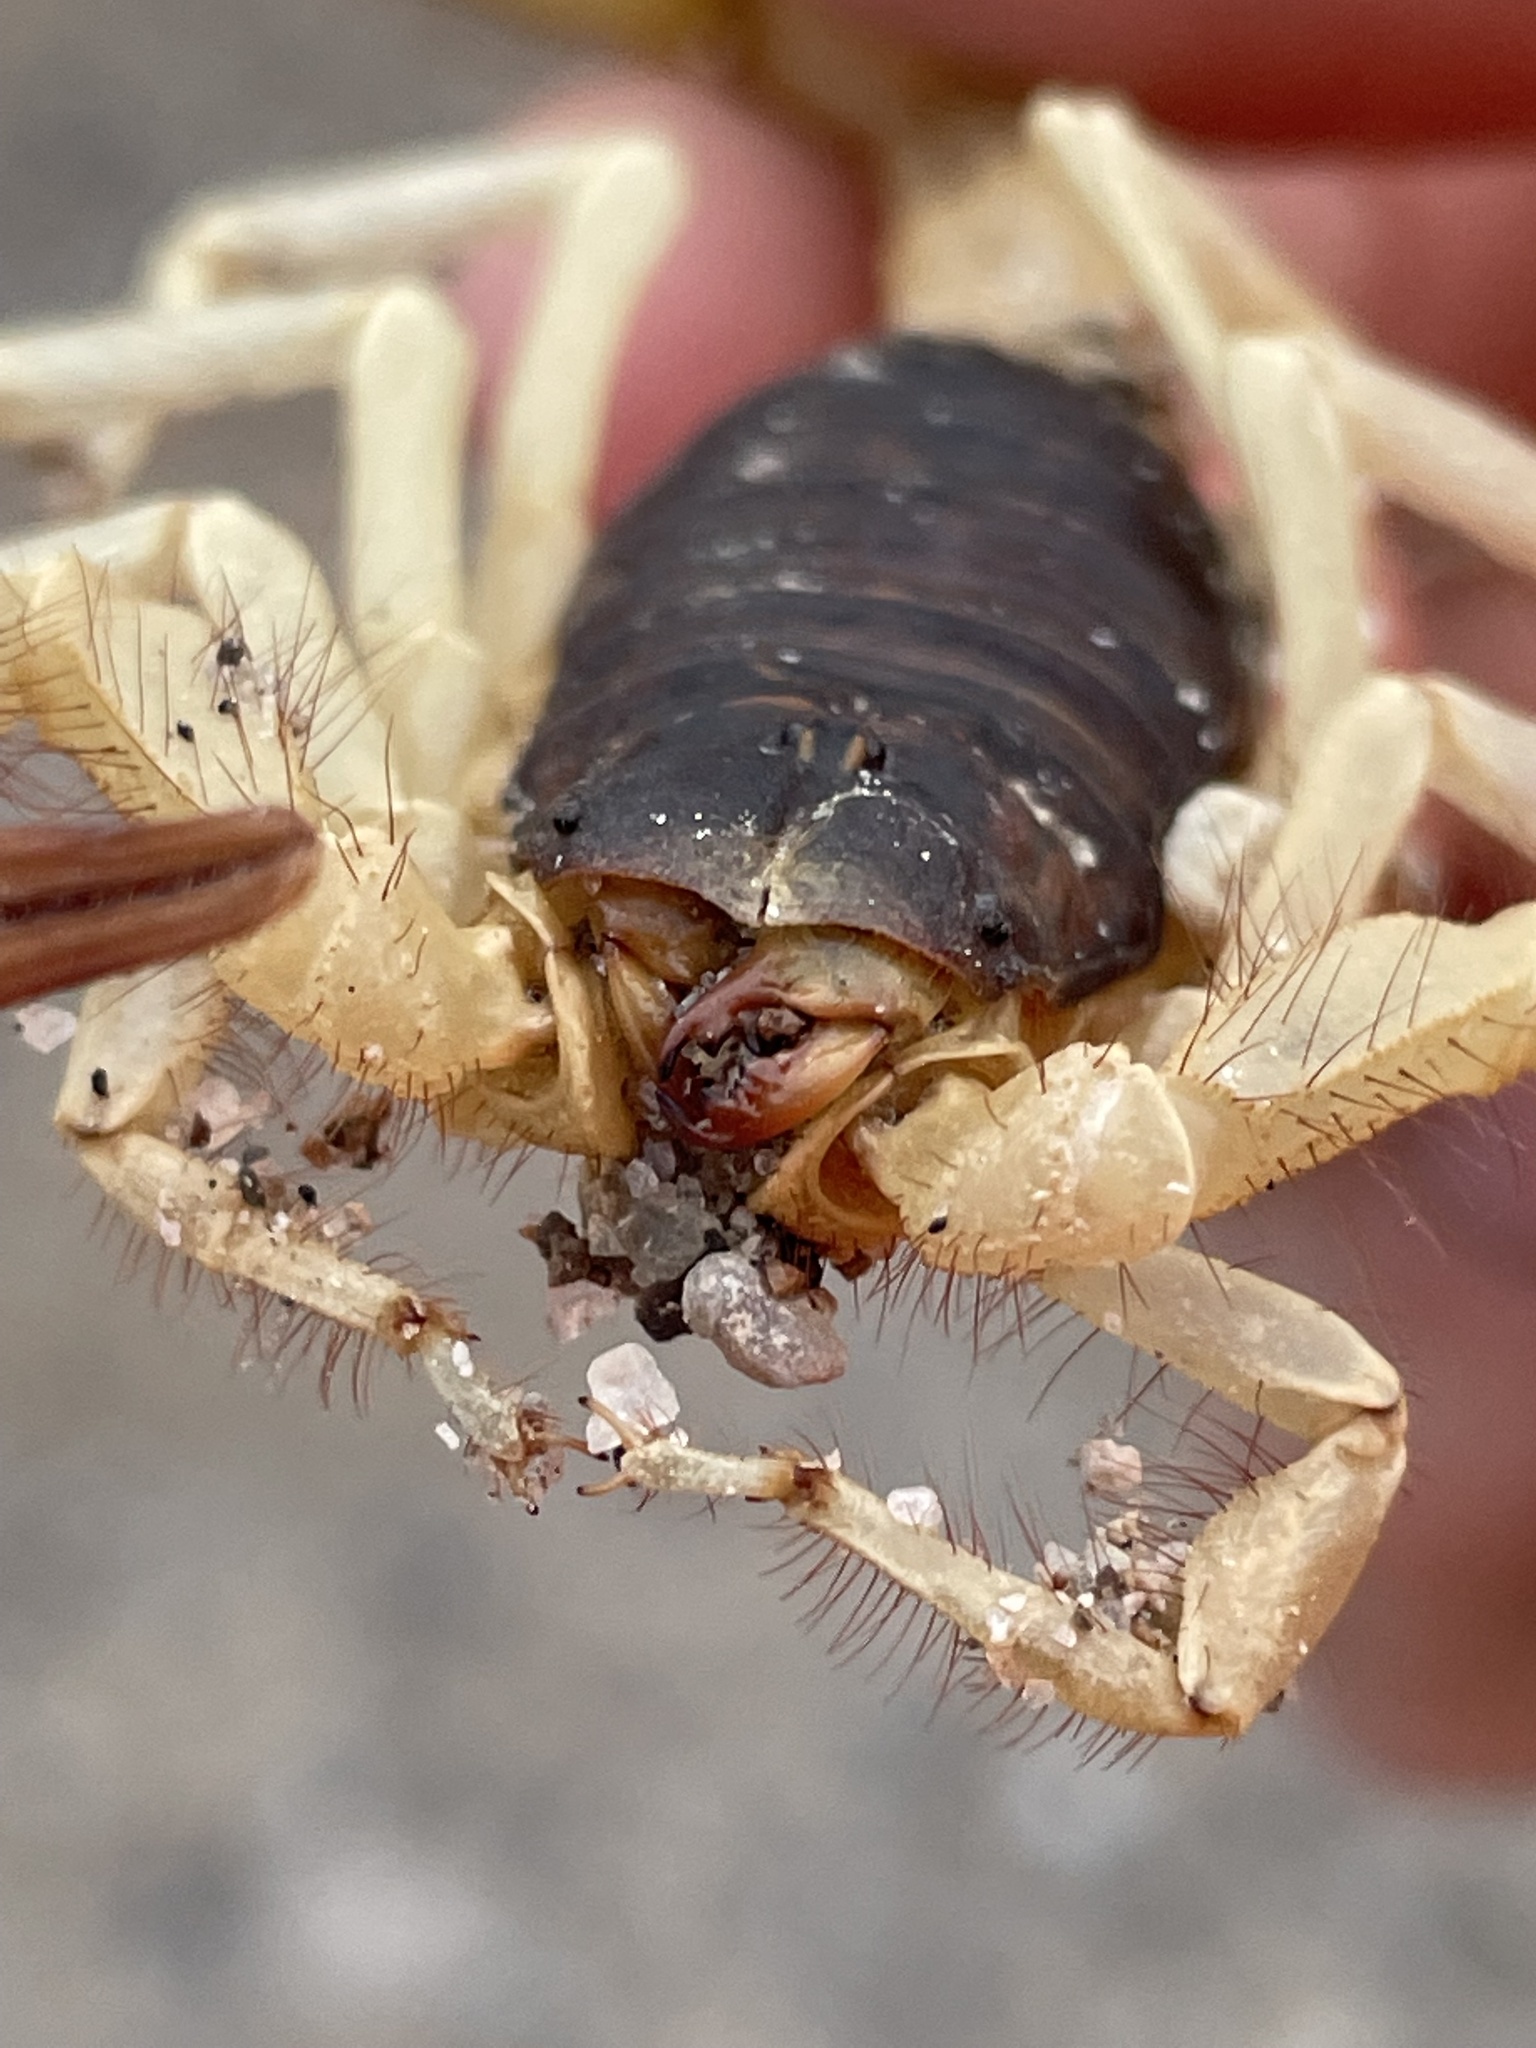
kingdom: Animalia
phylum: Arthropoda
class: Arachnida
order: Scorpiones
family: Hadruridae
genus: Hadrurus
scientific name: Hadrurus spadix
